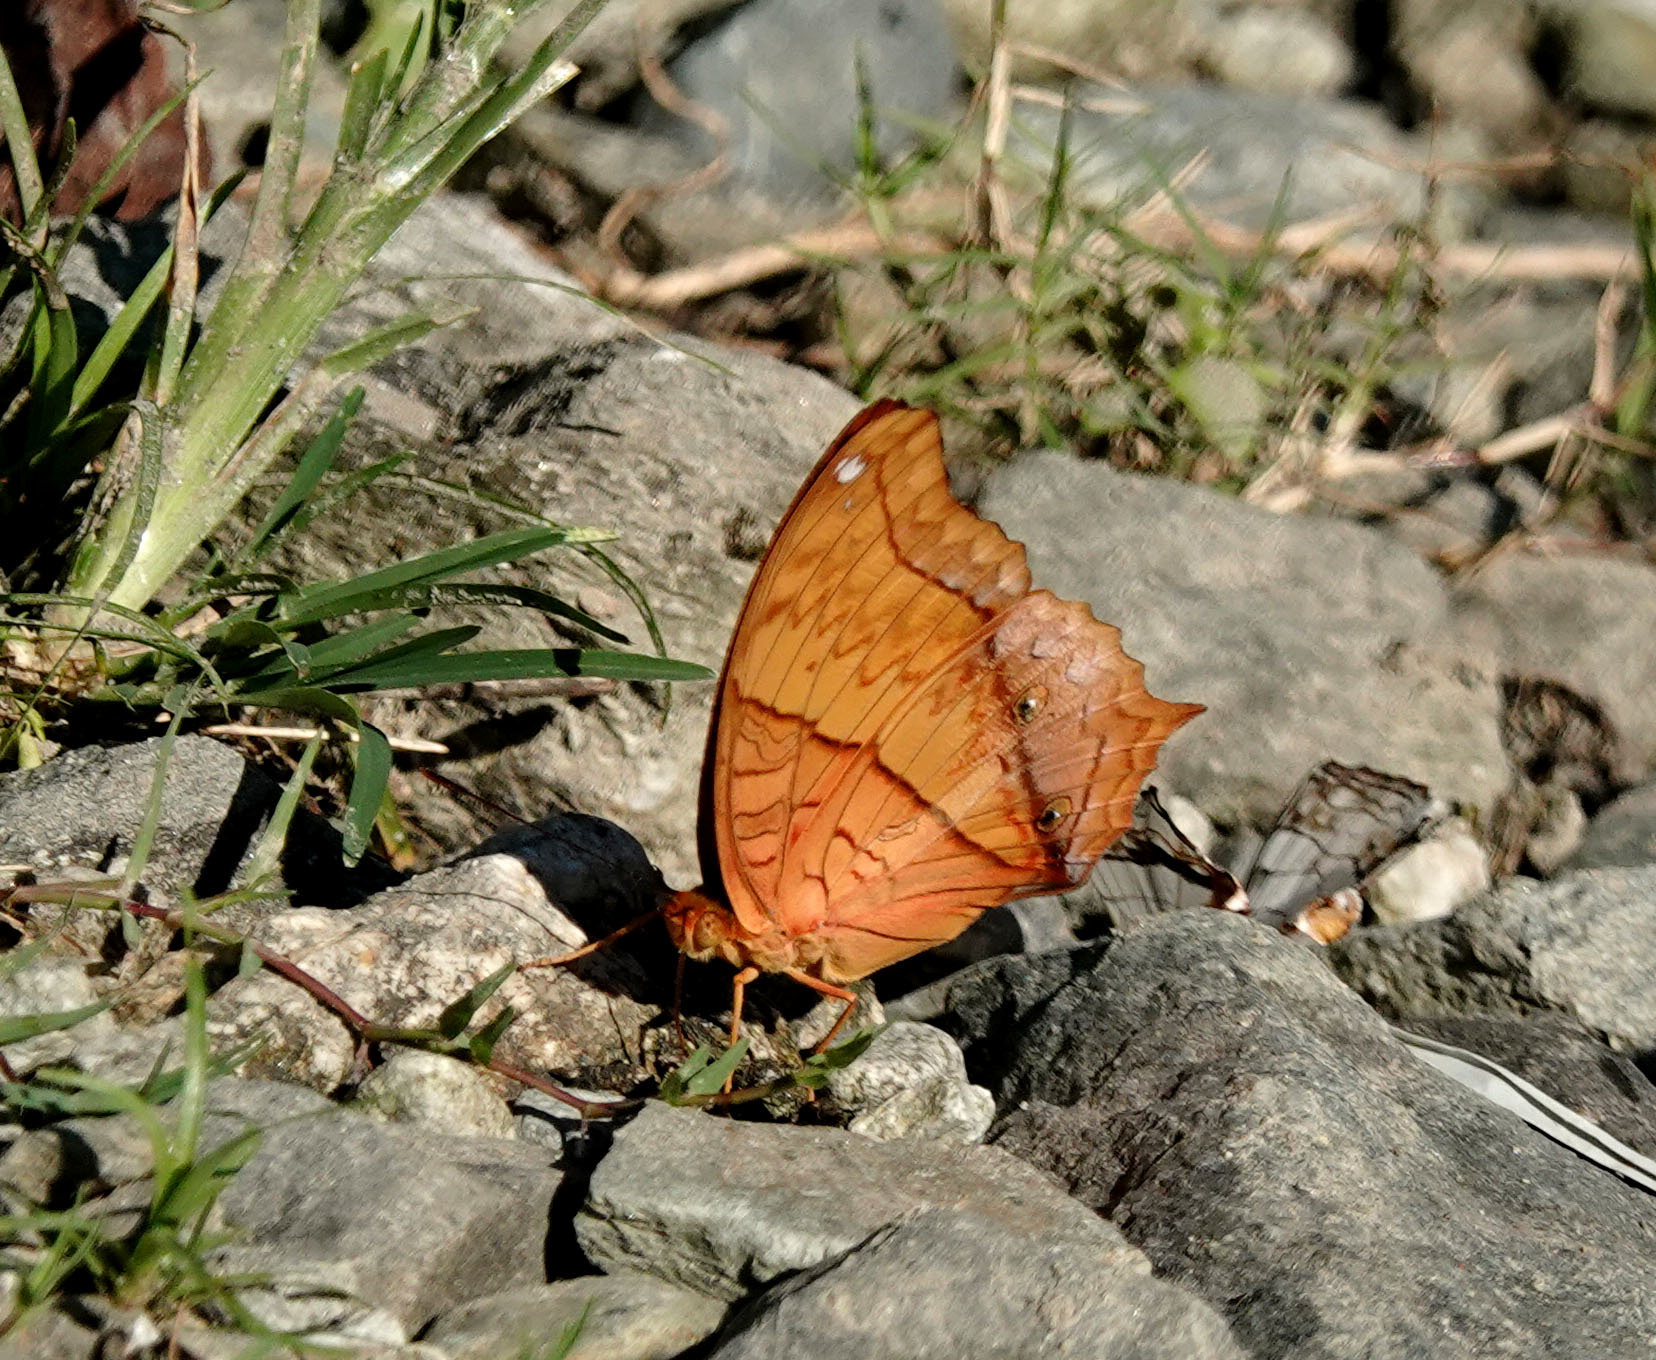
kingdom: Animalia
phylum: Arthropoda
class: Insecta
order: Lepidoptera
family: Nymphalidae
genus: Vindula
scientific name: Vindula erota
